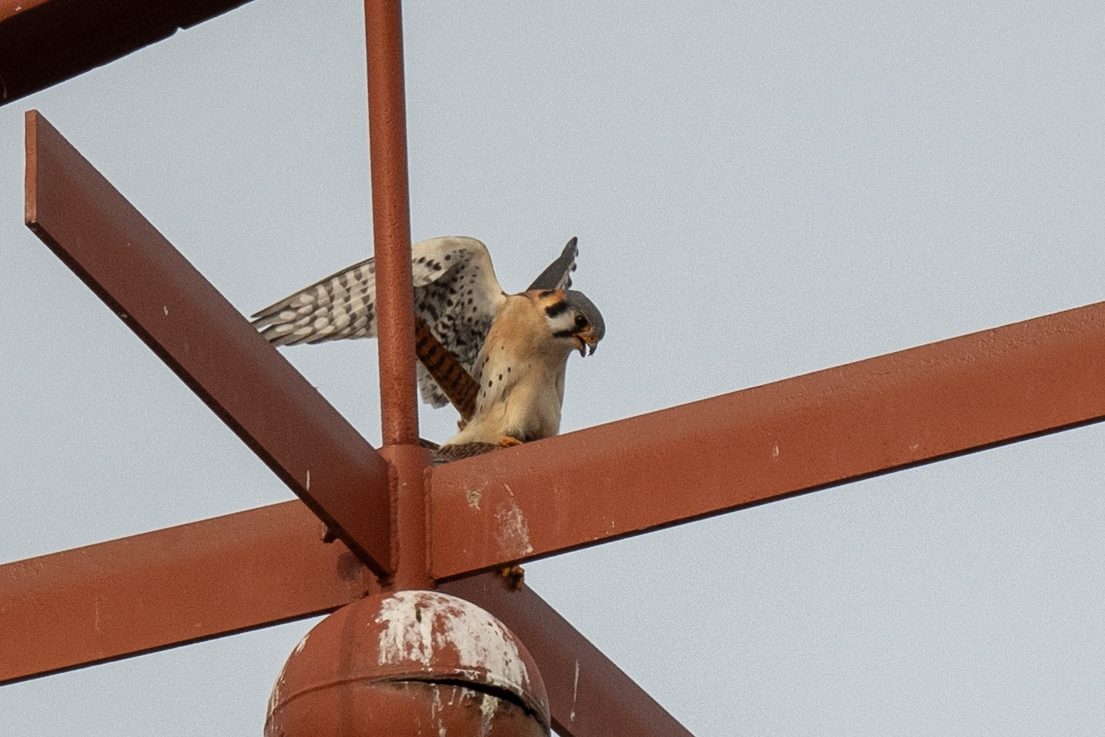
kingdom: Animalia
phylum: Chordata
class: Aves
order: Falconiformes
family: Falconidae
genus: Falco
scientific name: Falco sparverius
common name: American kestrel
